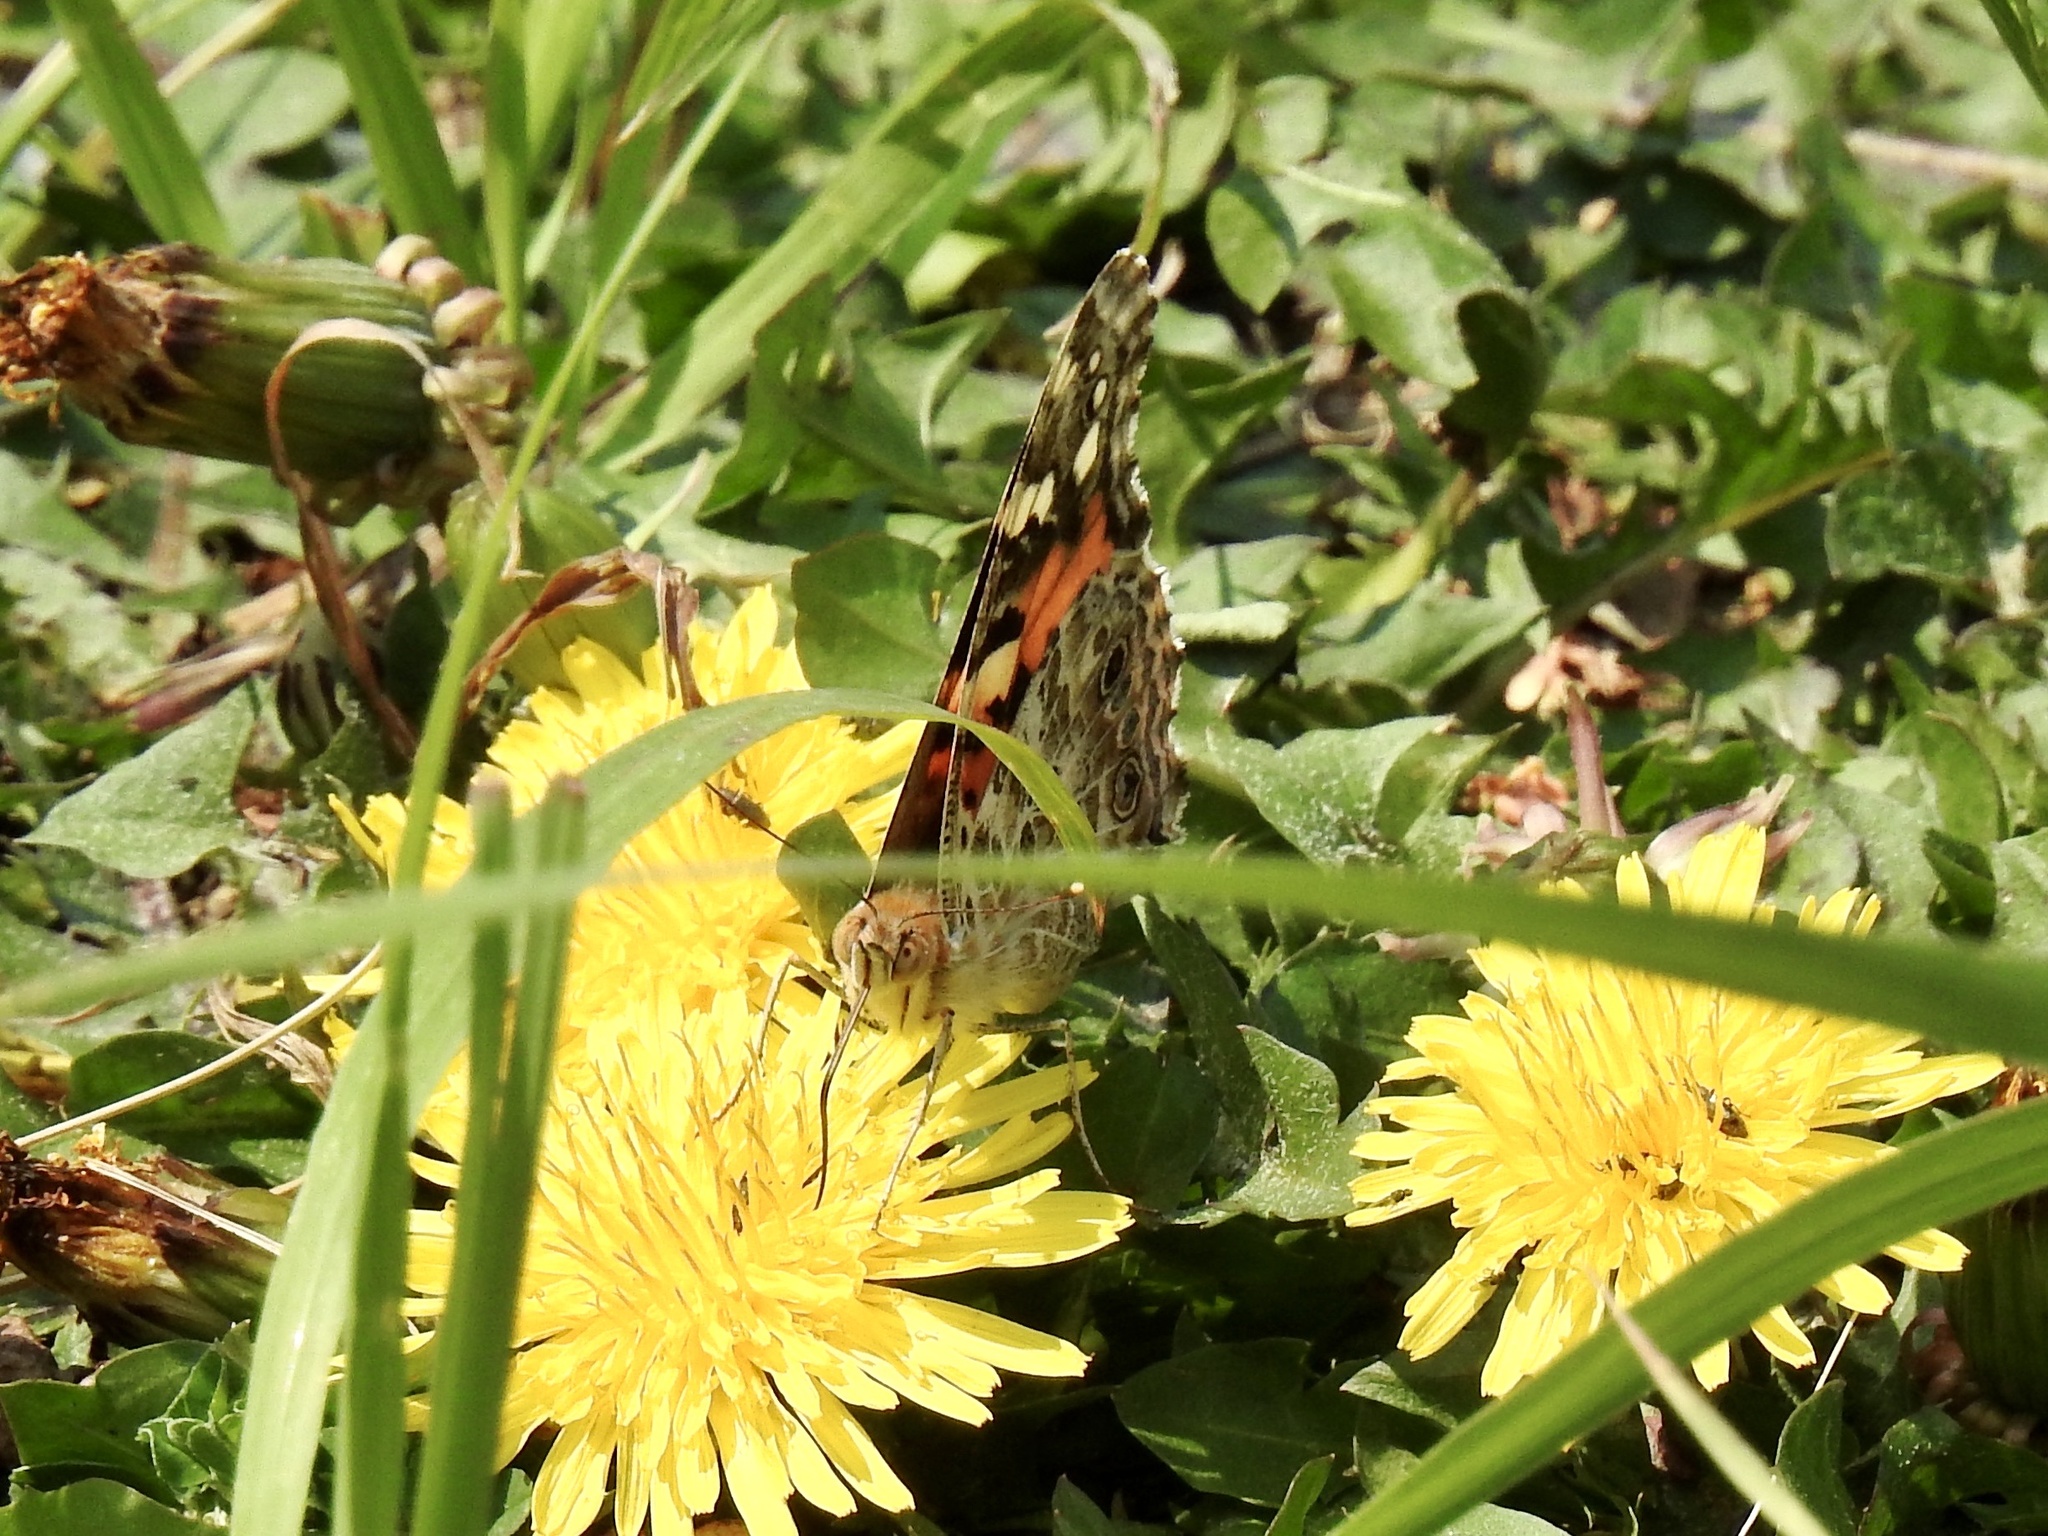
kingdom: Animalia
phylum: Arthropoda
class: Insecta
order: Lepidoptera
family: Nymphalidae
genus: Vanessa
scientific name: Vanessa cardui
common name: Painted lady
